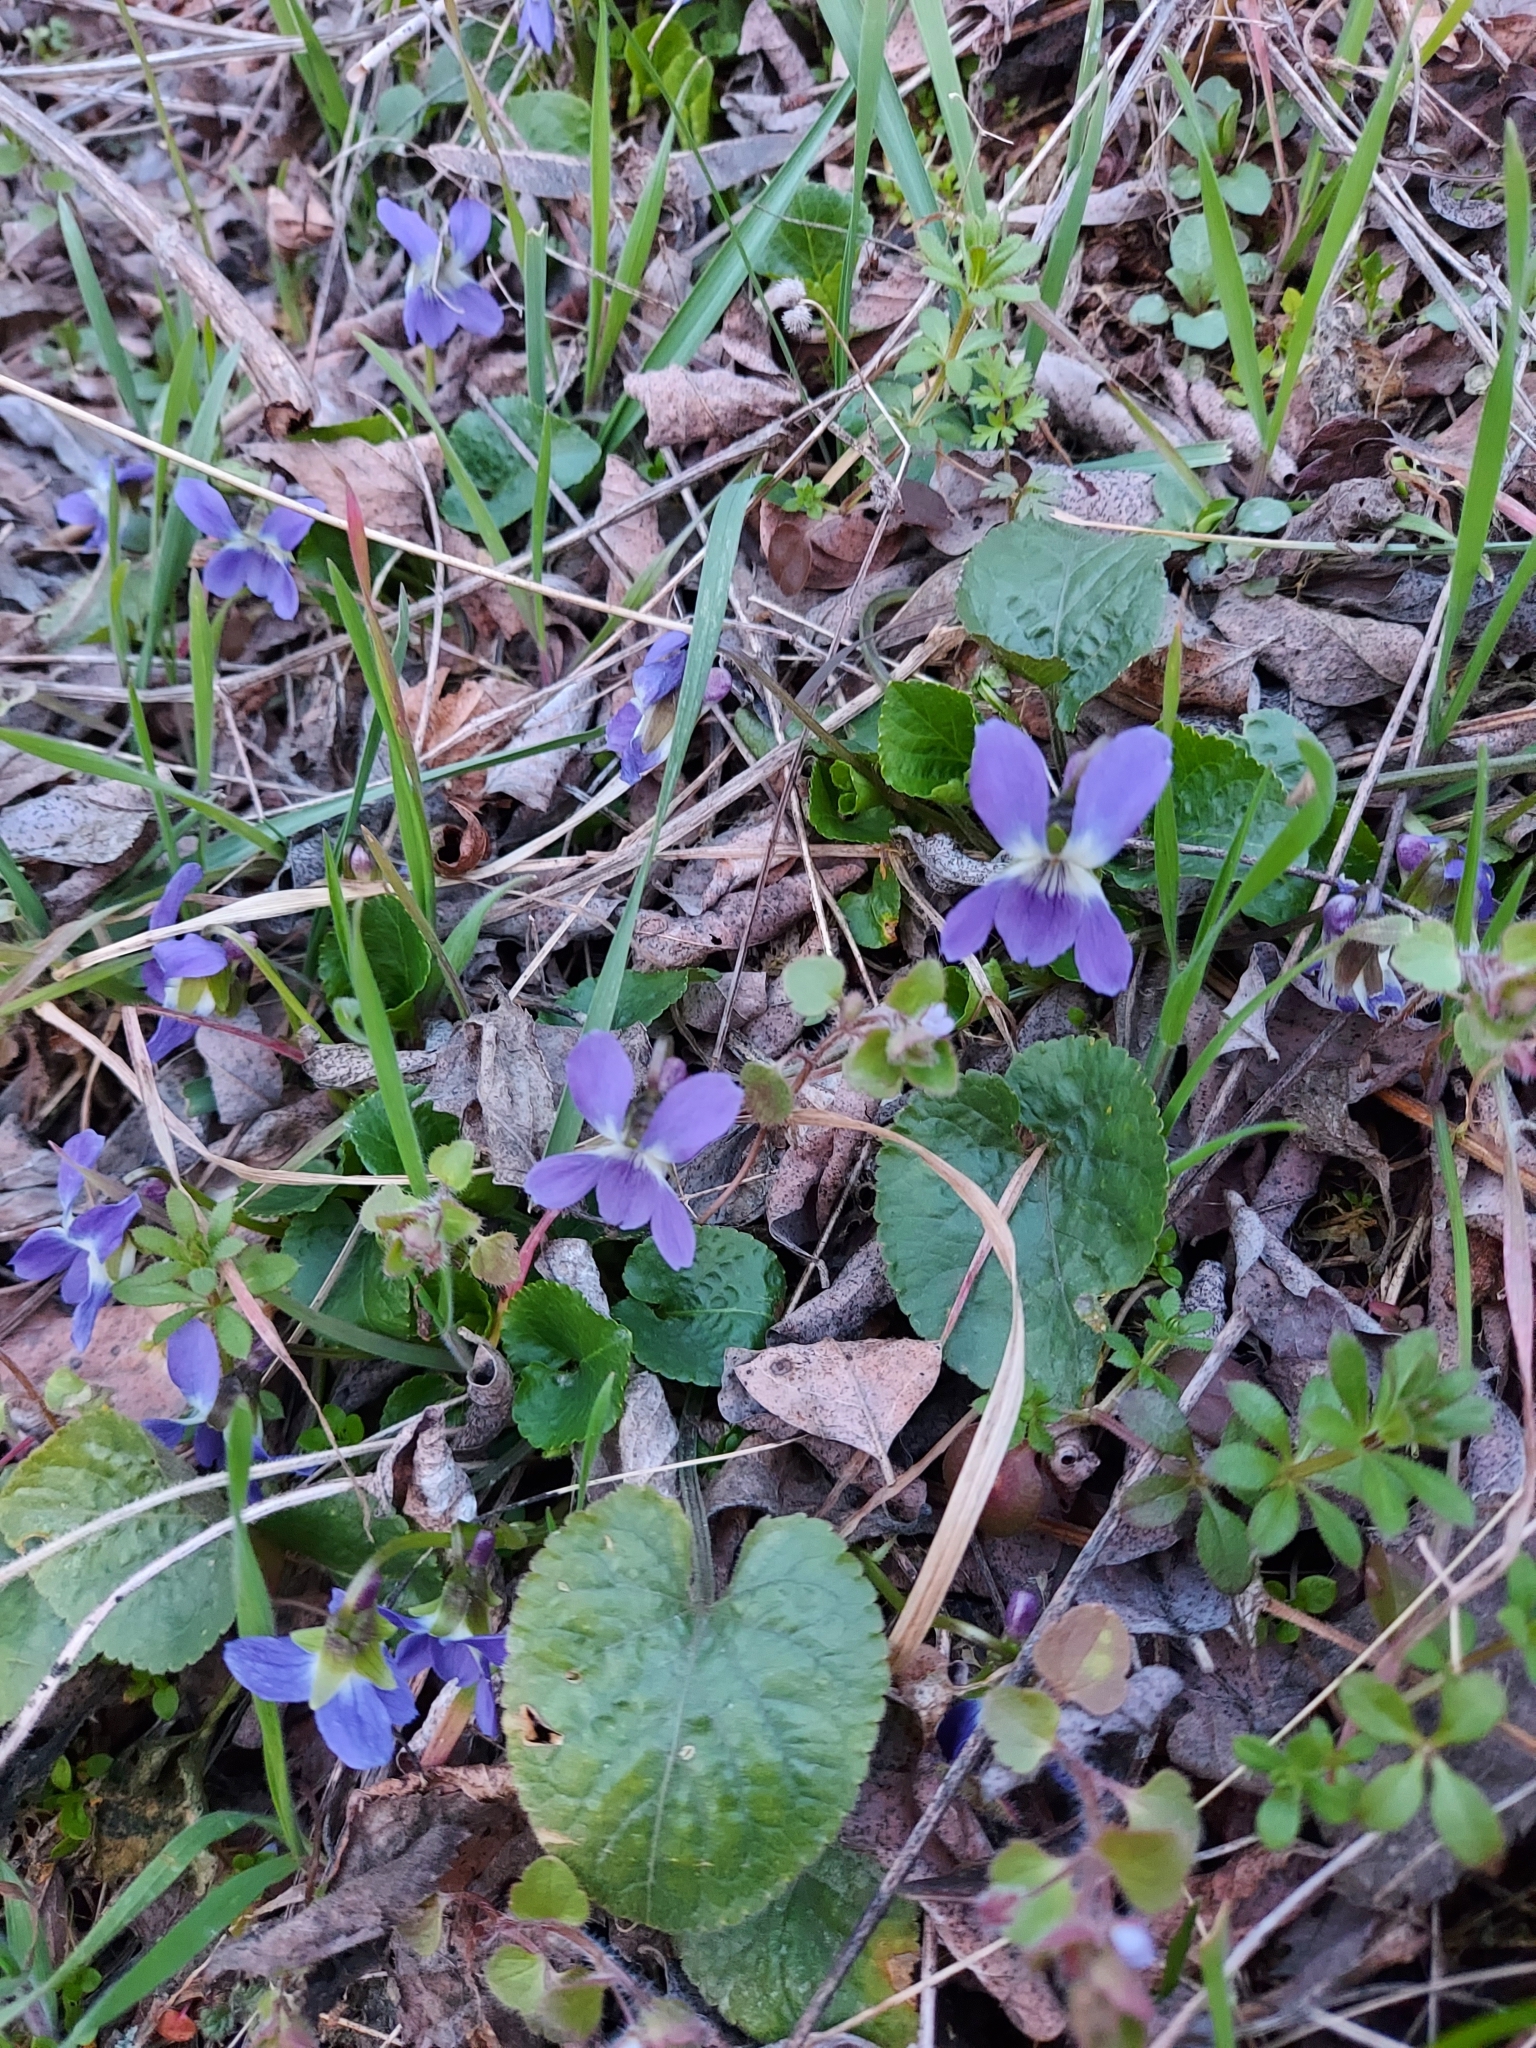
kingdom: Plantae
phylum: Tracheophyta
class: Magnoliopsida
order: Malpighiales
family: Violaceae
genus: Viola
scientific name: Viola suavis
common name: Russian violet
